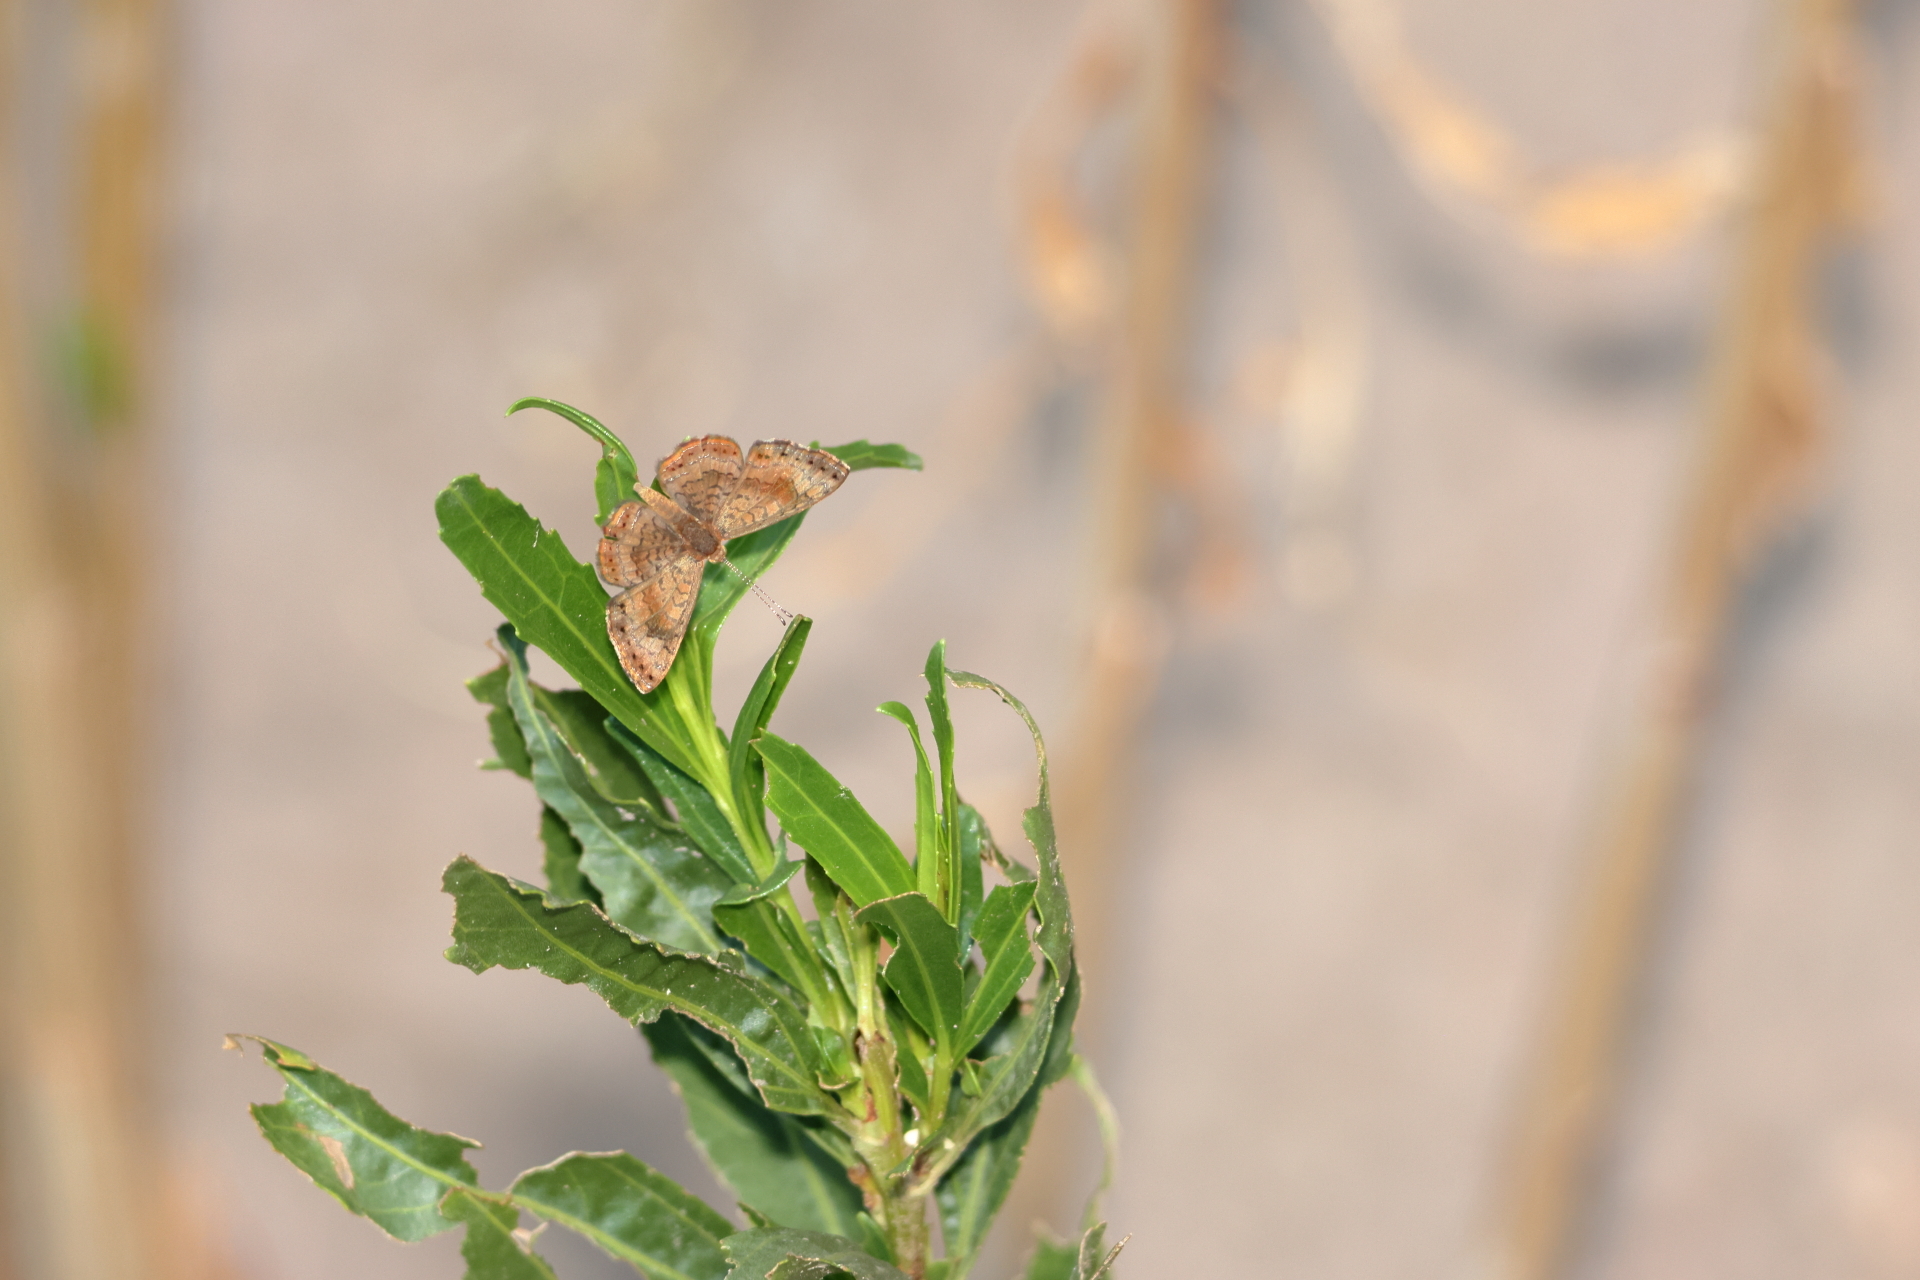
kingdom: Animalia
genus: Calephelis
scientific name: Calephelis nemesis
